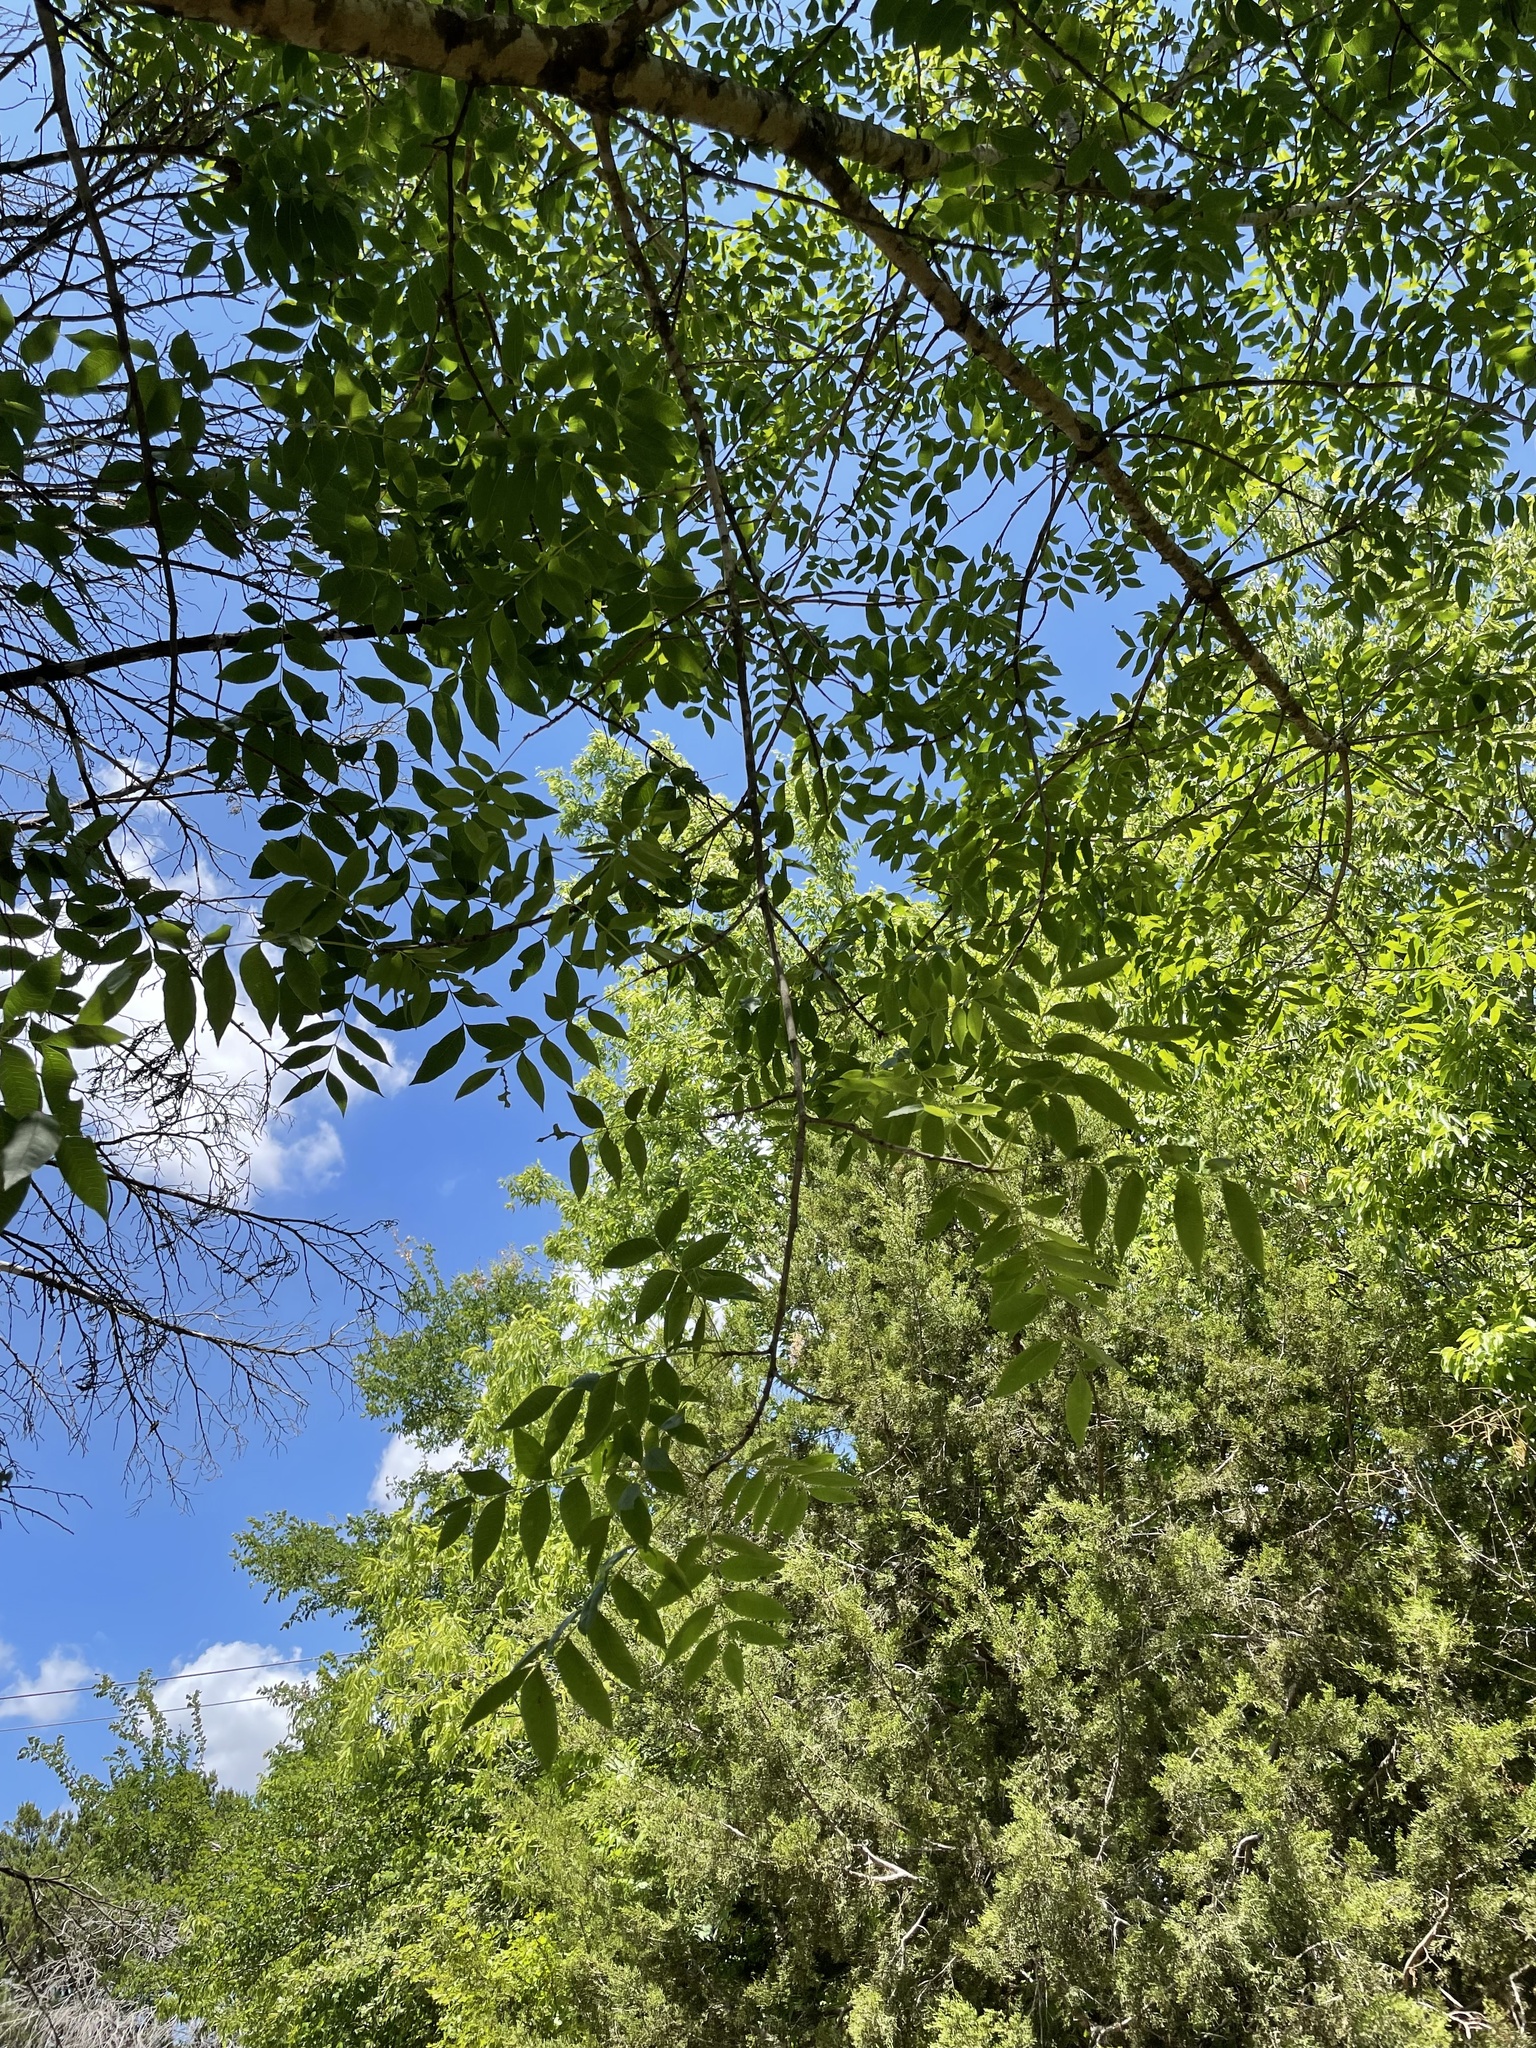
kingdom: Plantae
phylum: Tracheophyta
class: Magnoliopsida
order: Sapindales
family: Anacardiaceae
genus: Pistacia
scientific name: Pistacia chinensis
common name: Chinese pistache
